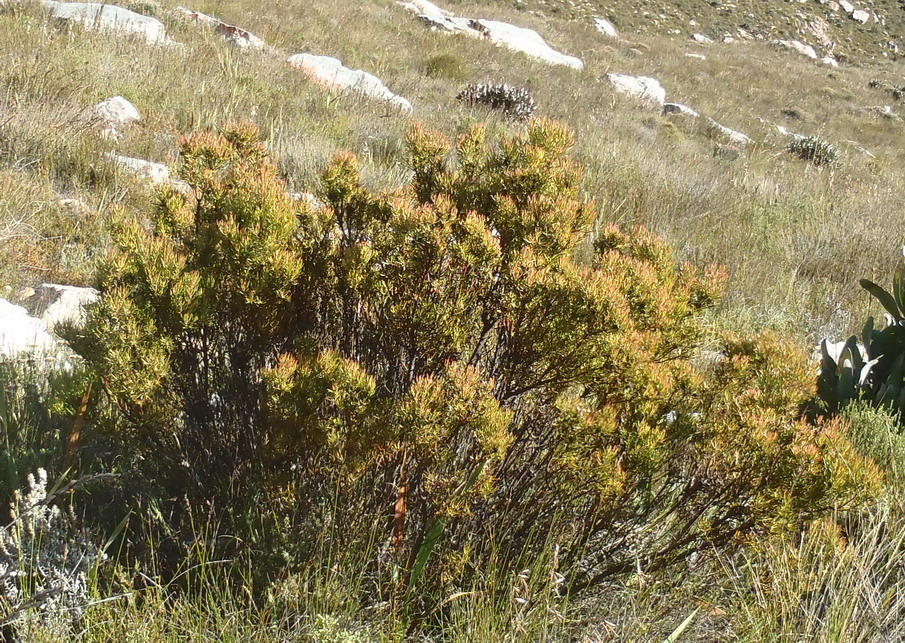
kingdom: Plantae
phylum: Tracheophyta
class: Magnoliopsida
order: Proteales
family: Proteaceae
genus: Leucadendron
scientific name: Leucadendron spissifolium
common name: Spear-leaf conebush
